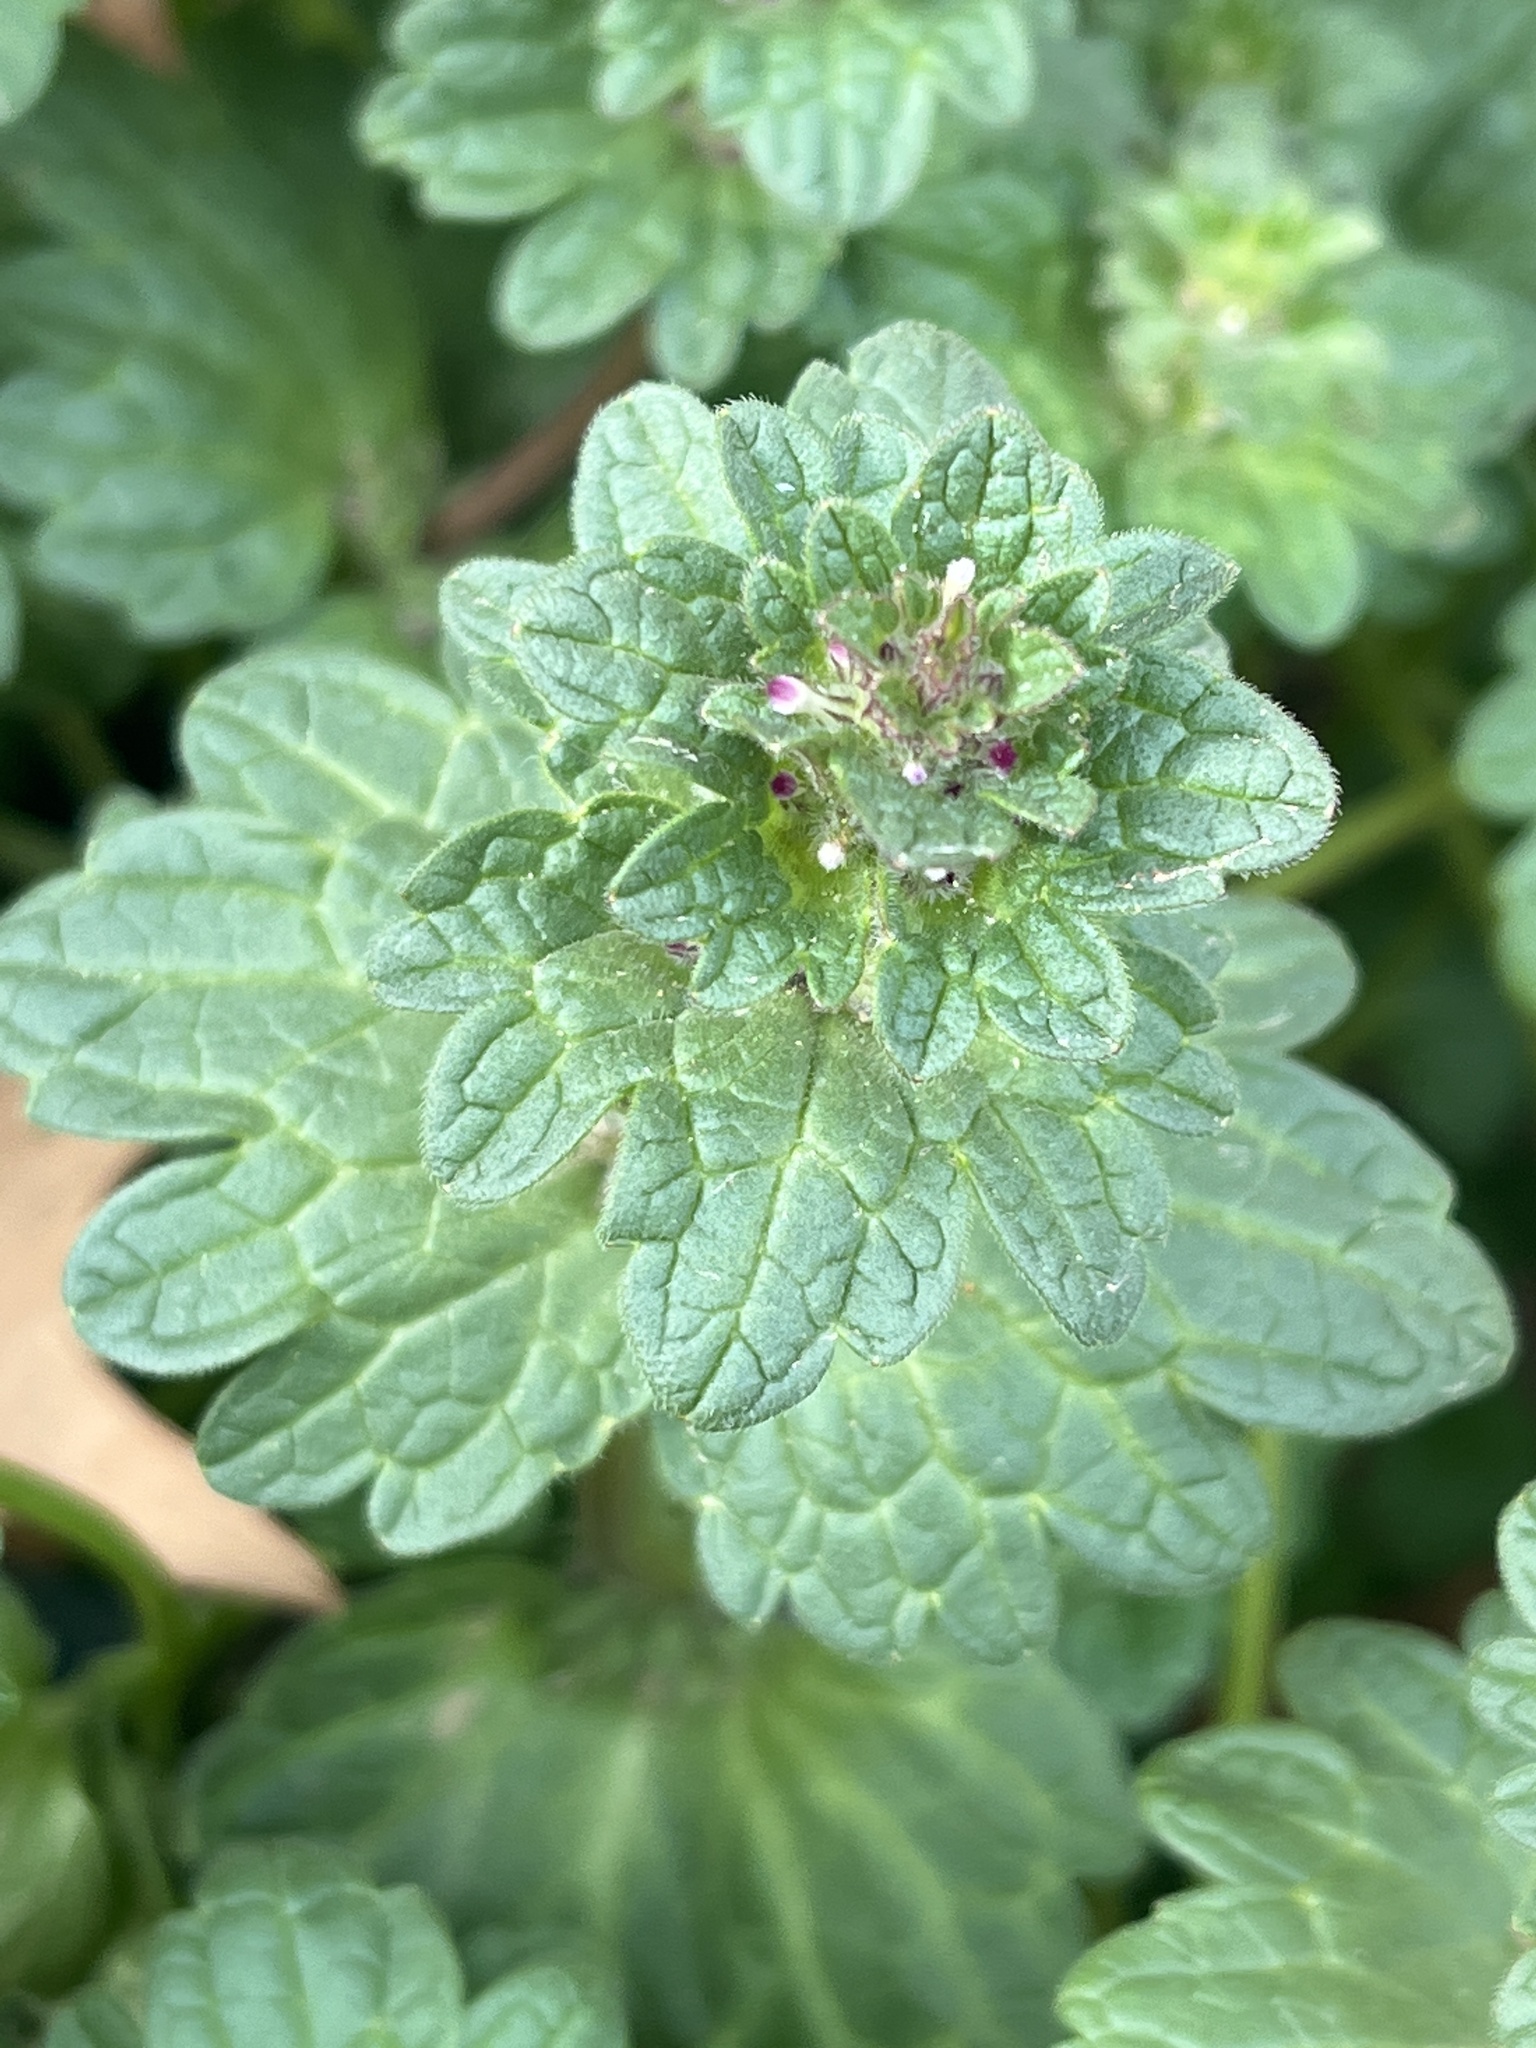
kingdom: Plantae
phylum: Tracheophyta
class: Magnoliopsida
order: Lamiales
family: Lamiaceae
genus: Lamium
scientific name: Lamium amplexicaule
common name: Henbit dead-nettle
